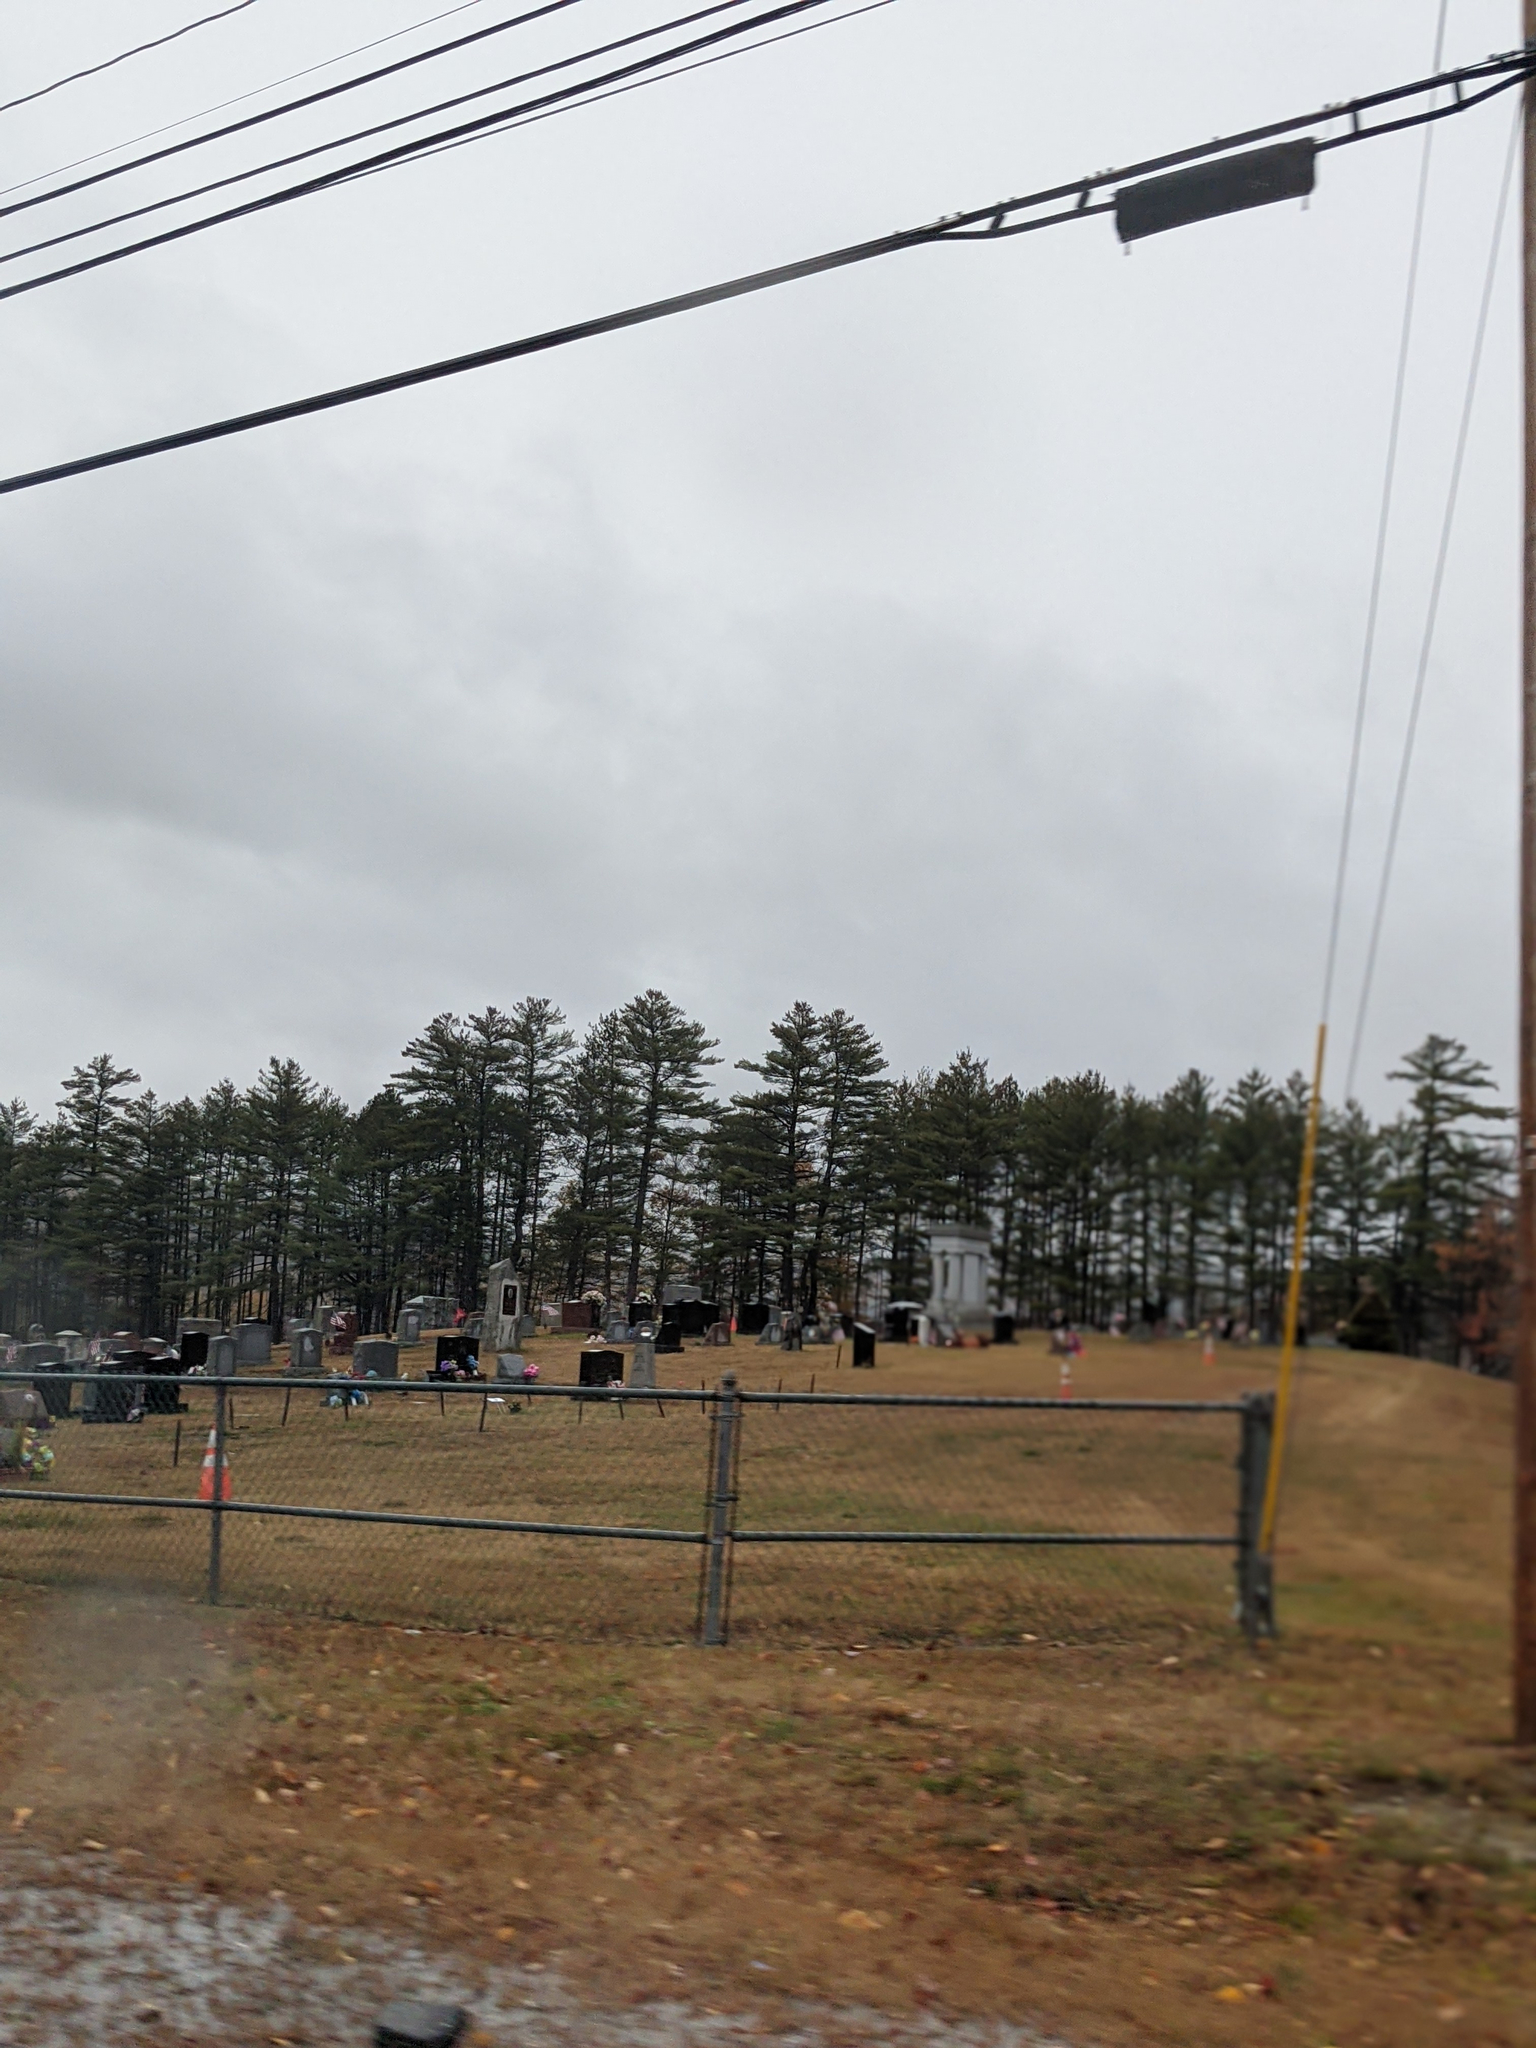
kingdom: Plantae
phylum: Tracheophyta
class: Pinopsida
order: Pinales
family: Pinaceae
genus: Pinus
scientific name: Pinus strobus
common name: Weymouth pine
